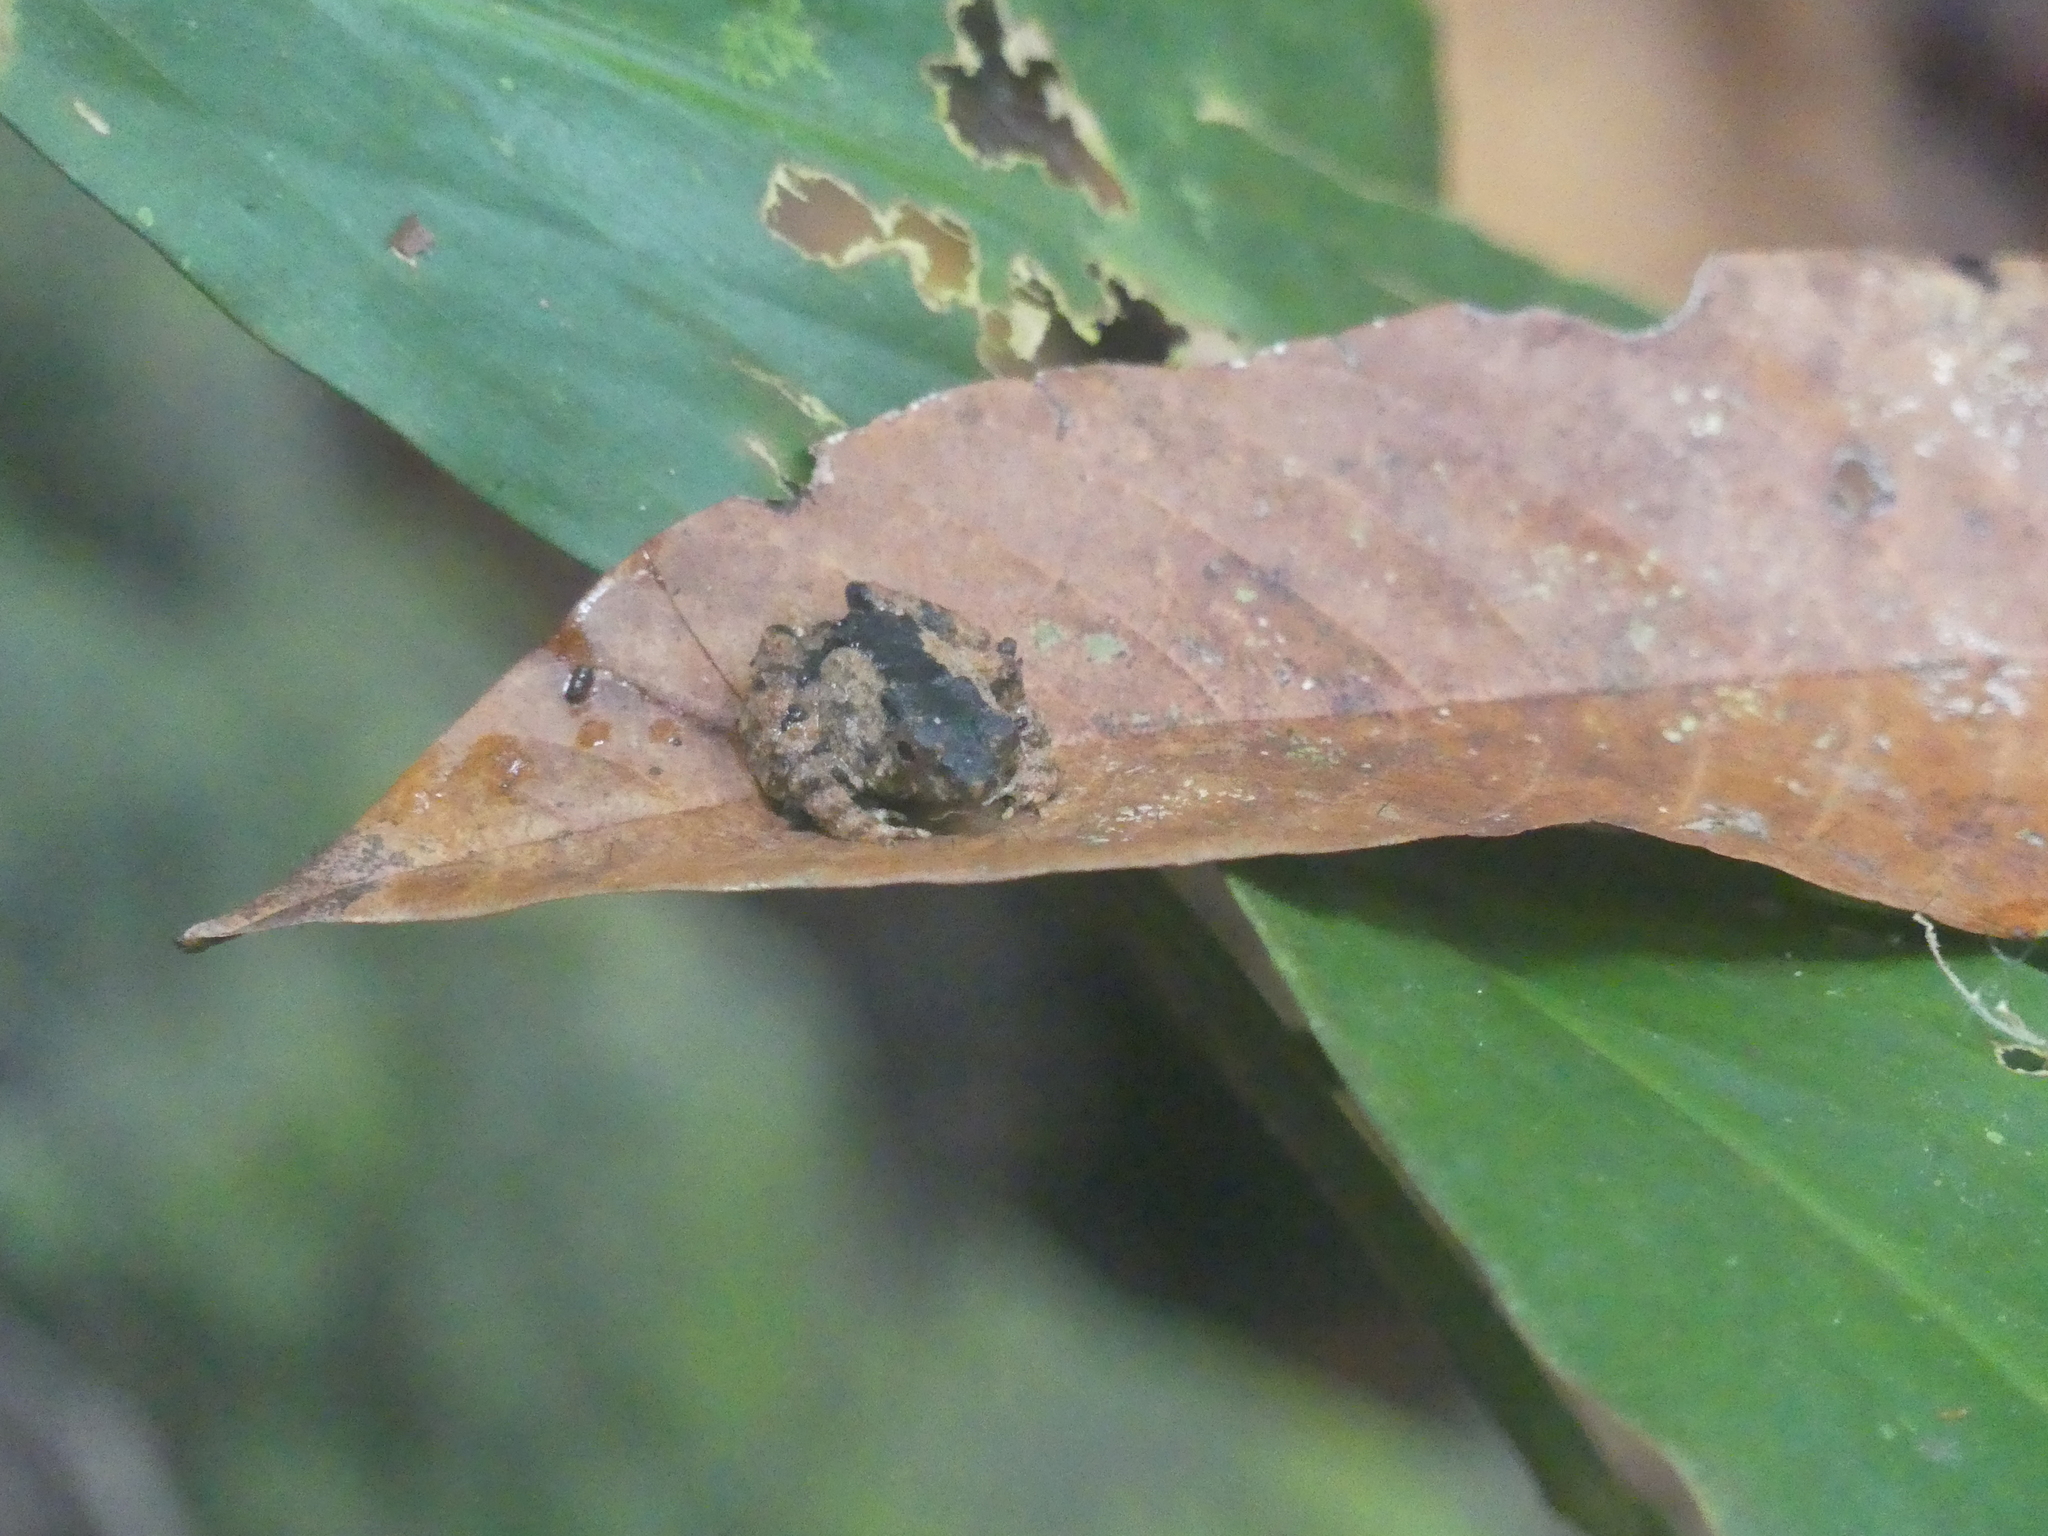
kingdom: Animalia
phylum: Chordata
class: Amphibia
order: Anura
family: Dicroglossidae
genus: Occidozyga
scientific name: Occidozyga baluensis
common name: Balu oriental frog
